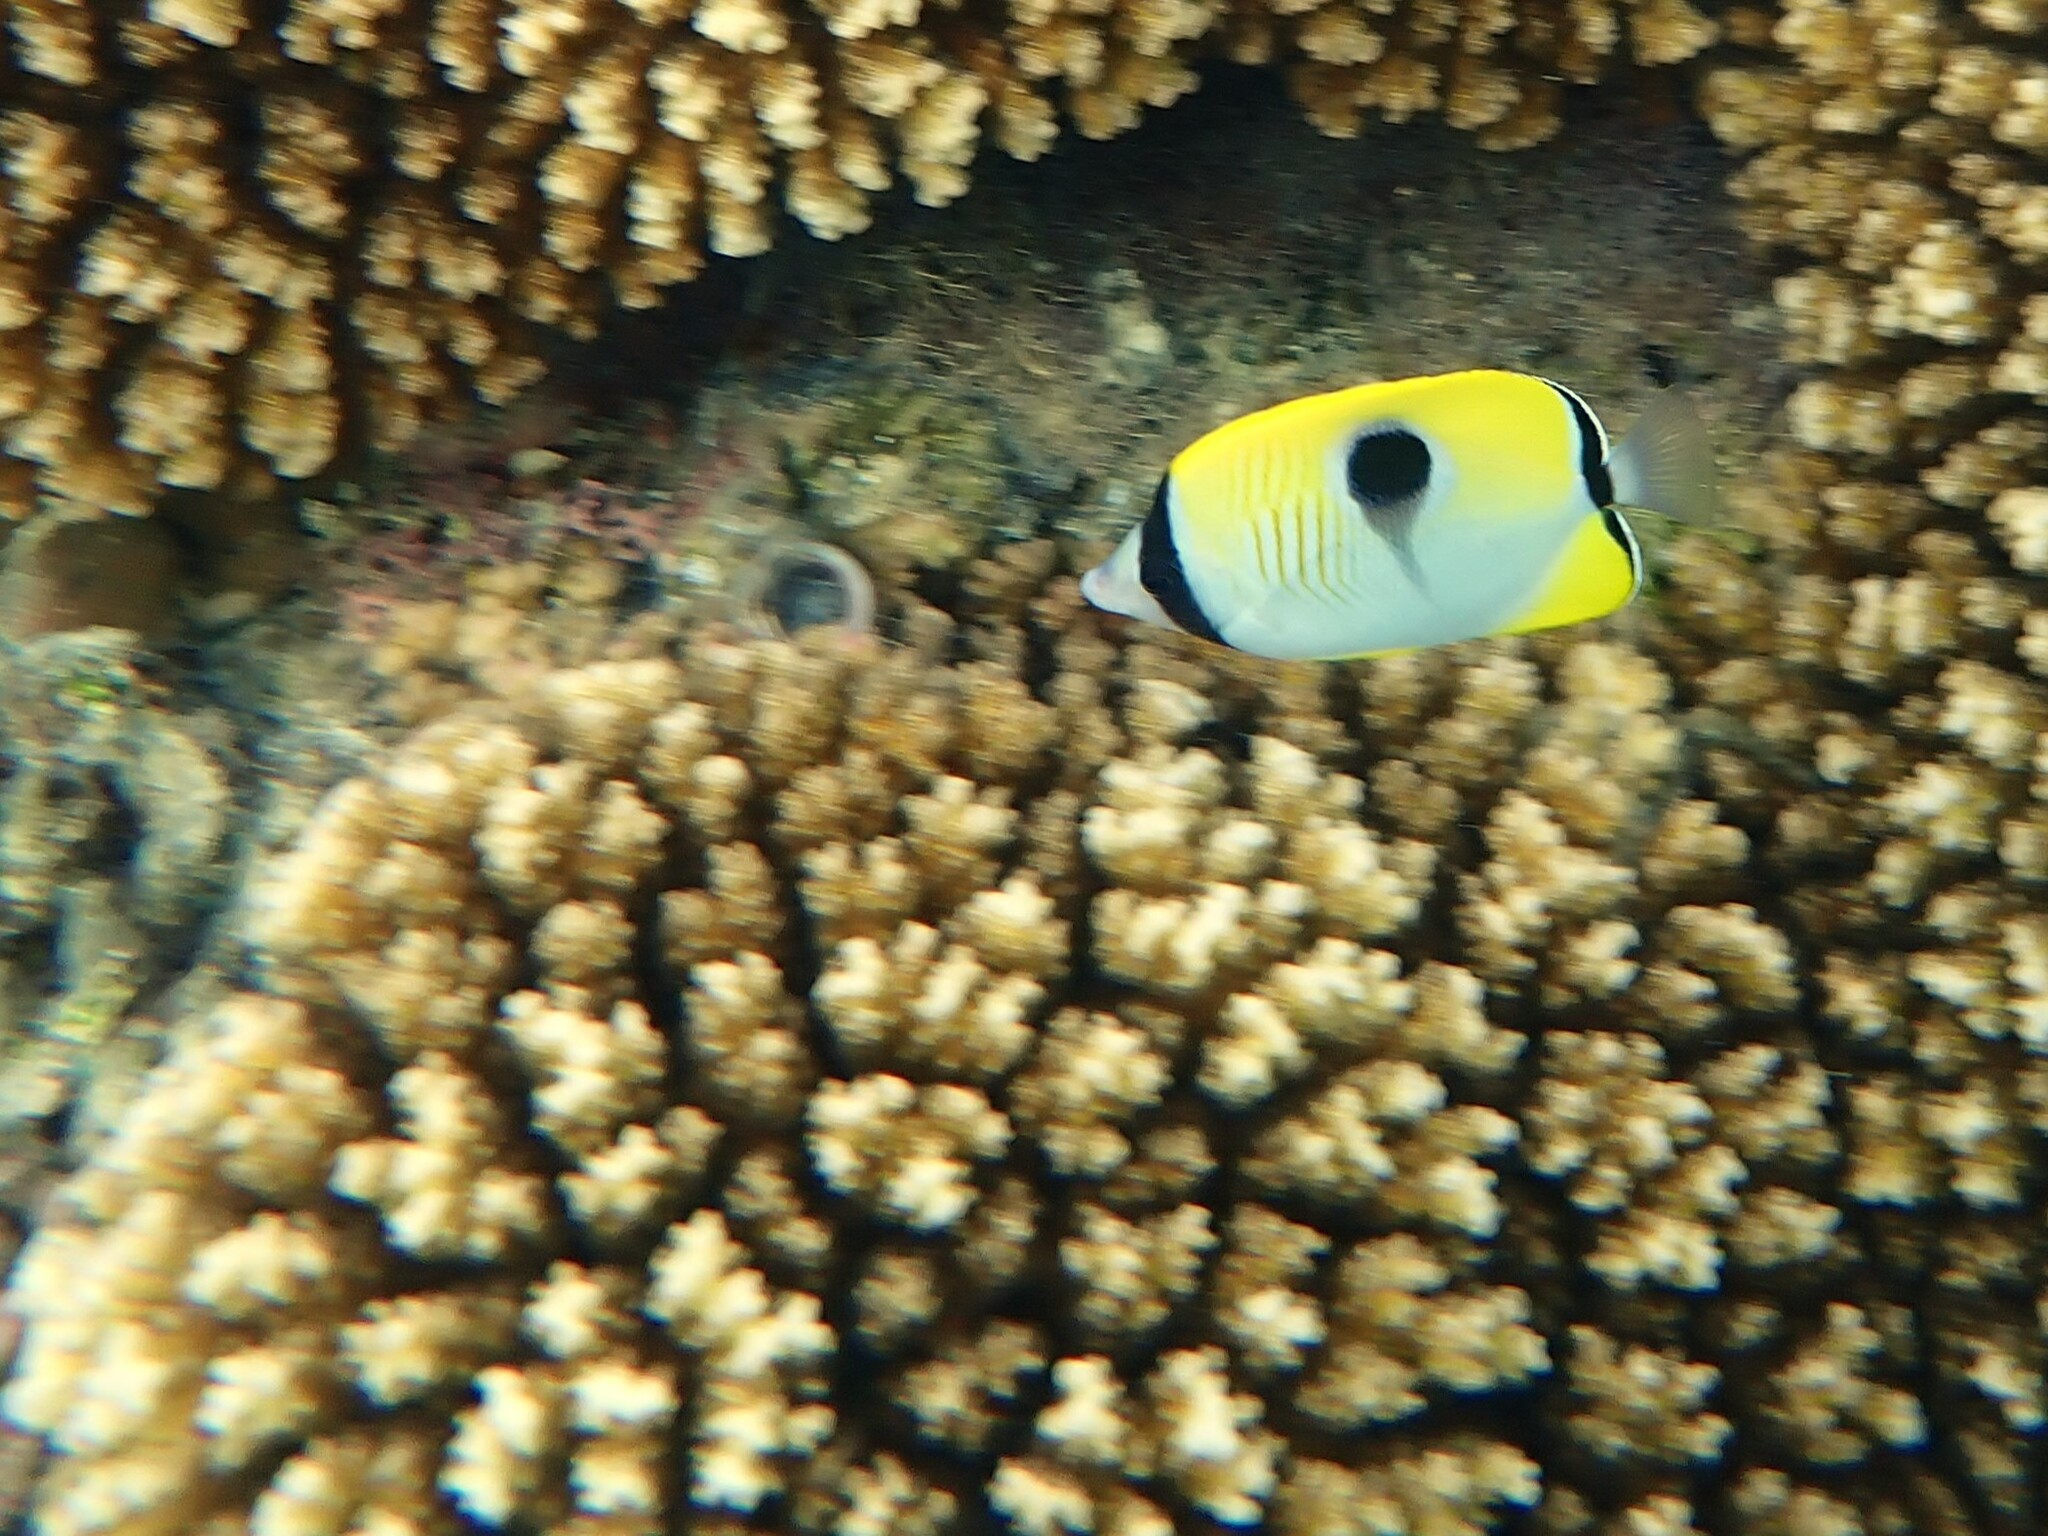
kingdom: Animalia
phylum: Chordata
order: Perciformes
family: Chaetodontidae
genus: Chaetodon
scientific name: Chaetodon unimaculatus
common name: Teardrop butterflyfish
